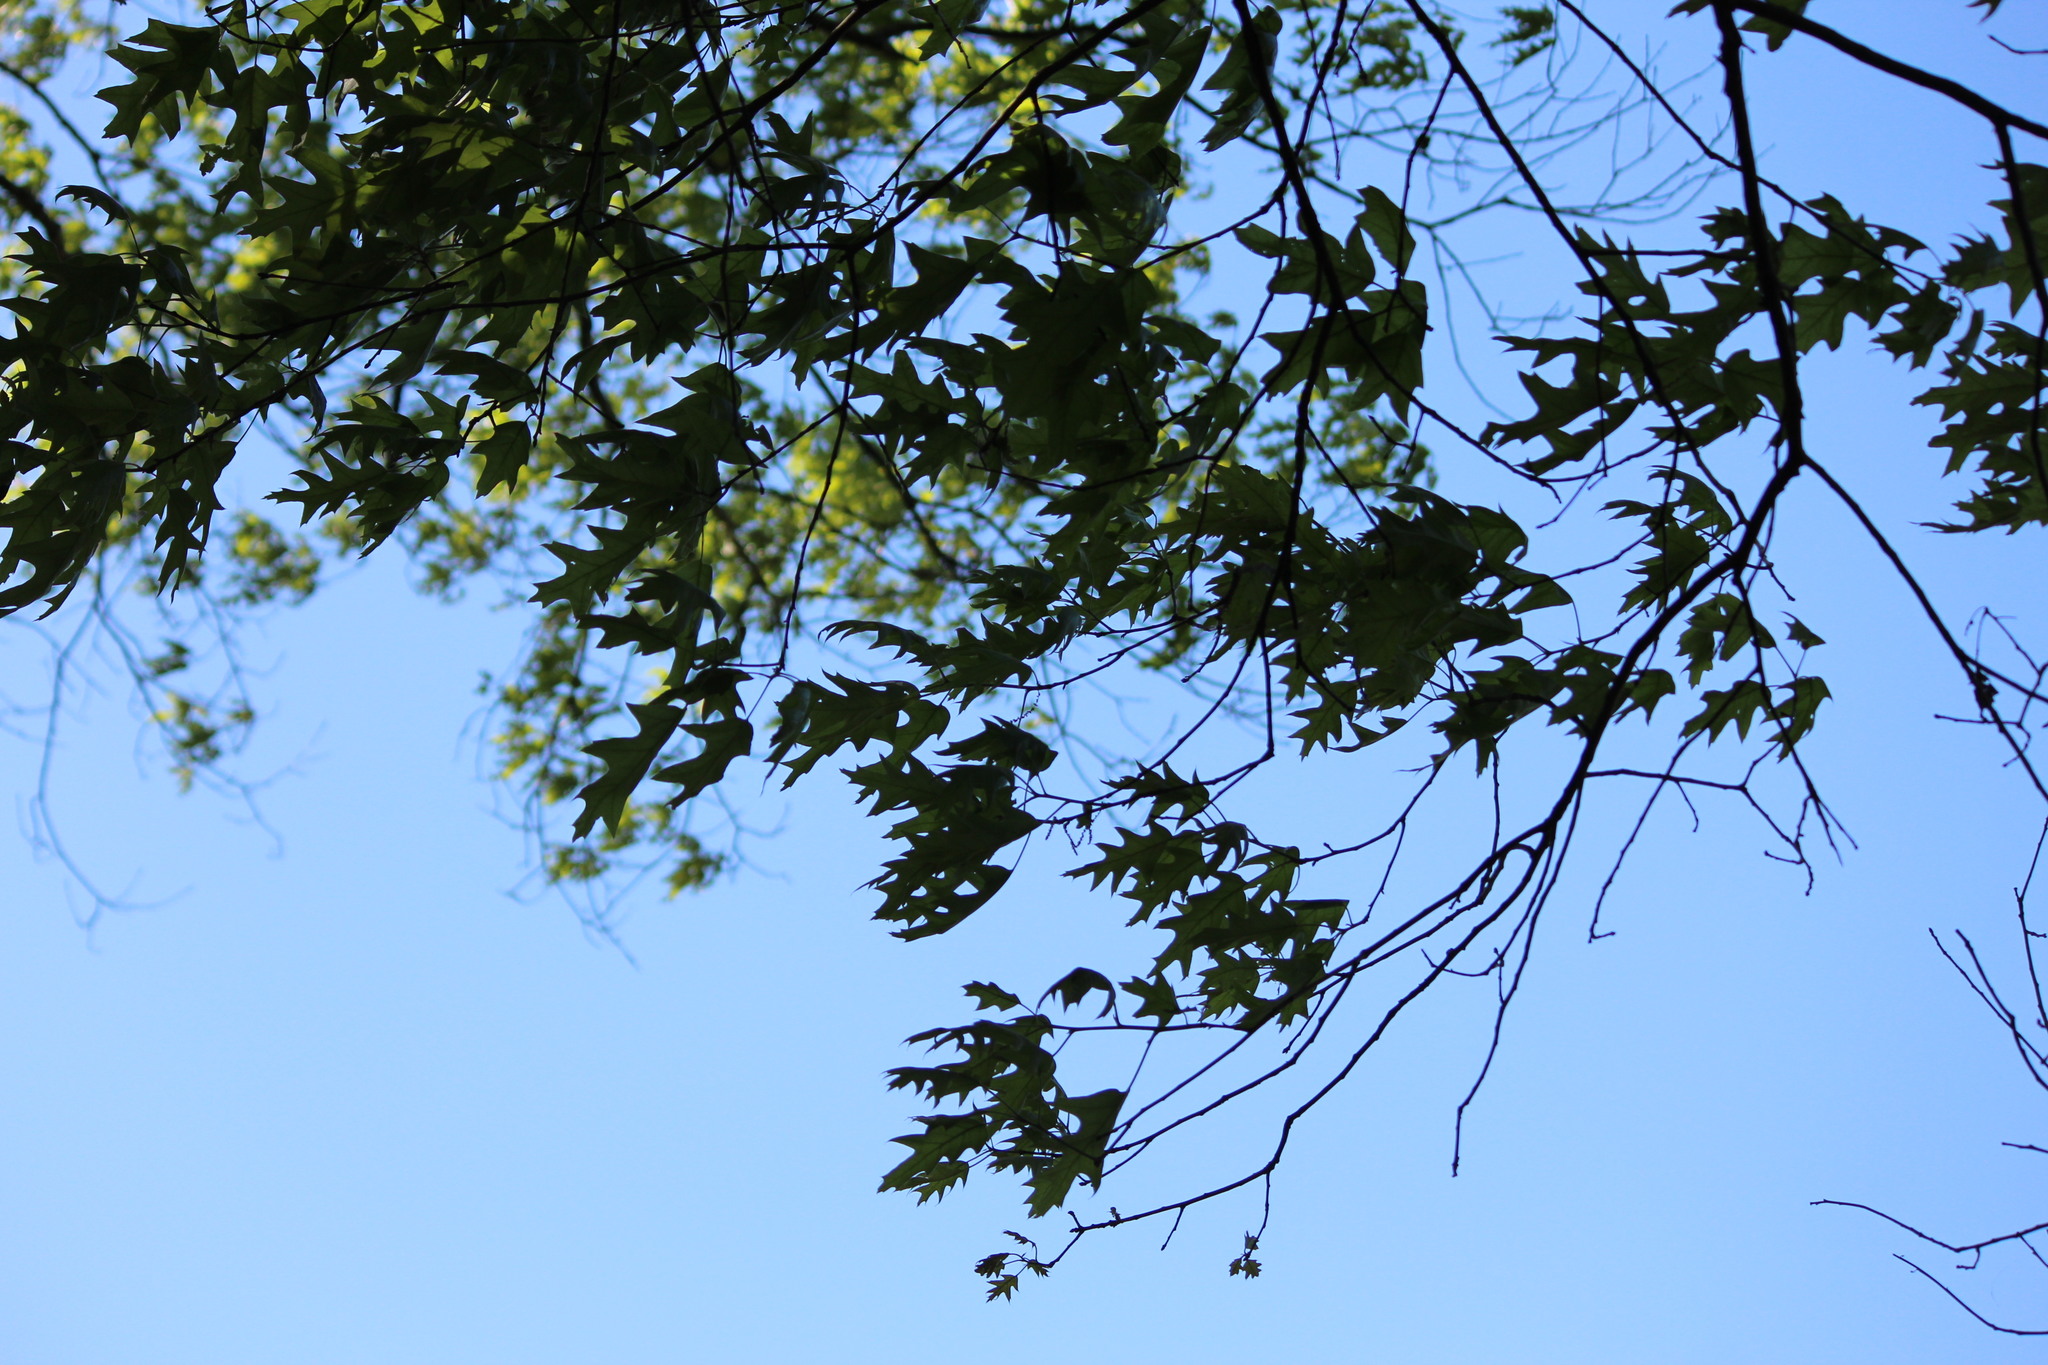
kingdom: Plantae
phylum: Tracheophyta
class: Magnoliopsida
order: Fagales
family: Fagaceae
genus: Quercus
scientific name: Quercus pagoda
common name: Cherrybark oak
